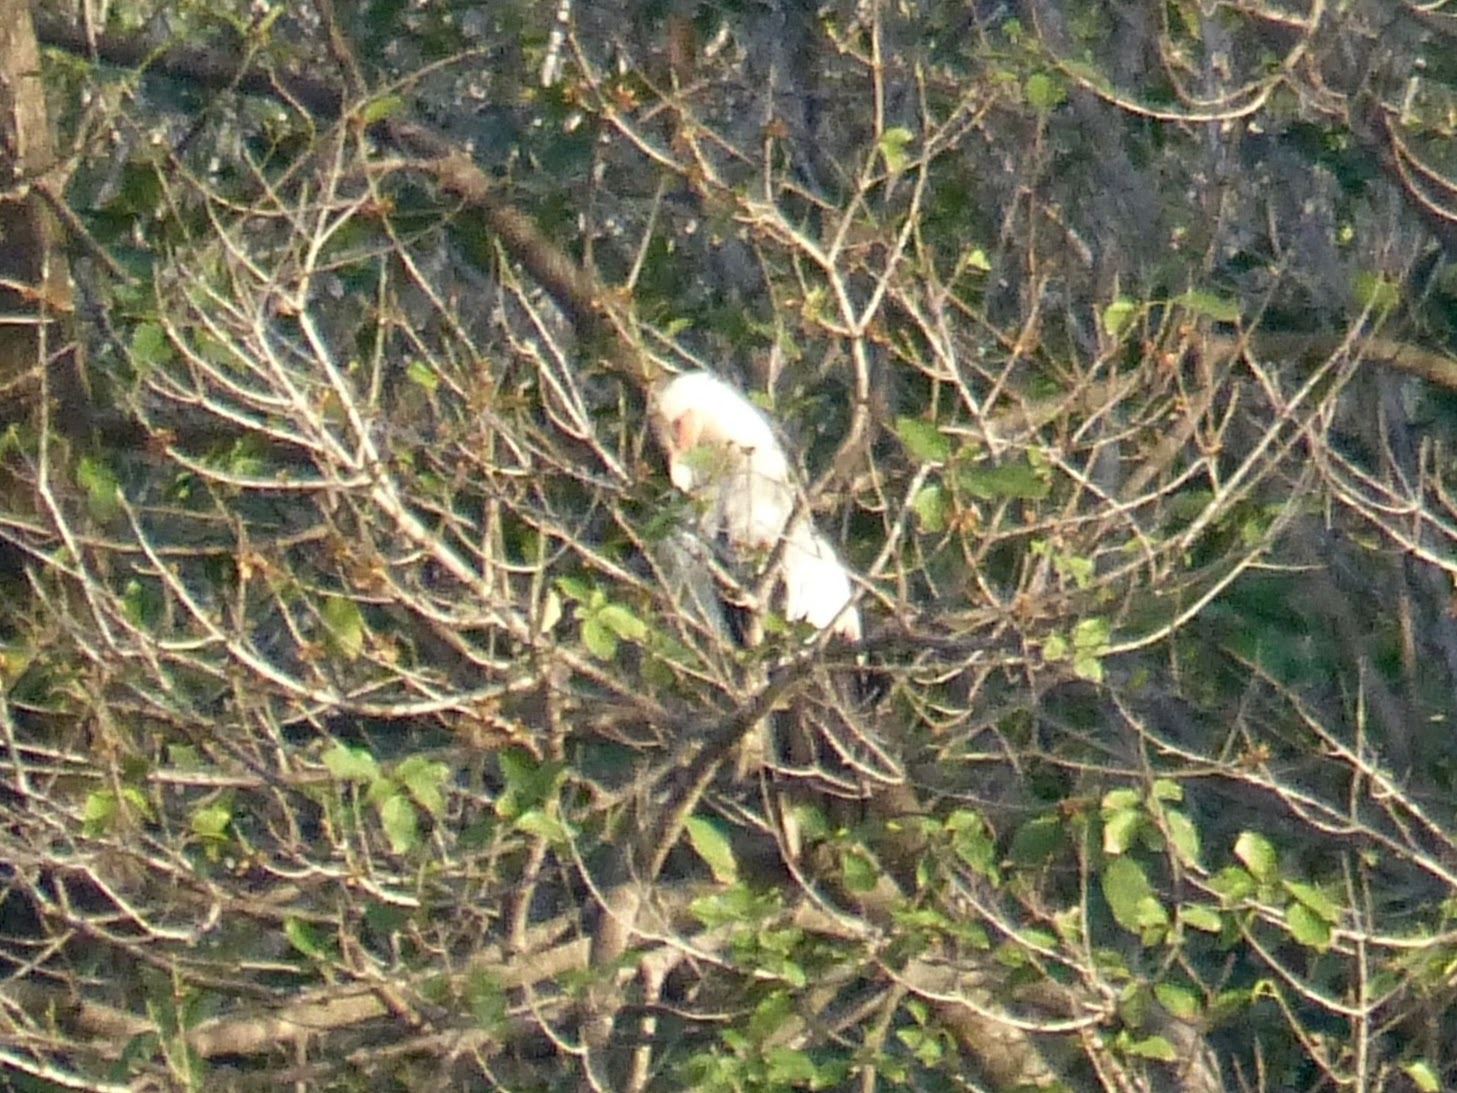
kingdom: Animalia
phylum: Chordata
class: Aves
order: Accipitriformes
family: Accipitridae
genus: Gypohierax
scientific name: Gypohierax angolensis
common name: Palm-nut vulture
